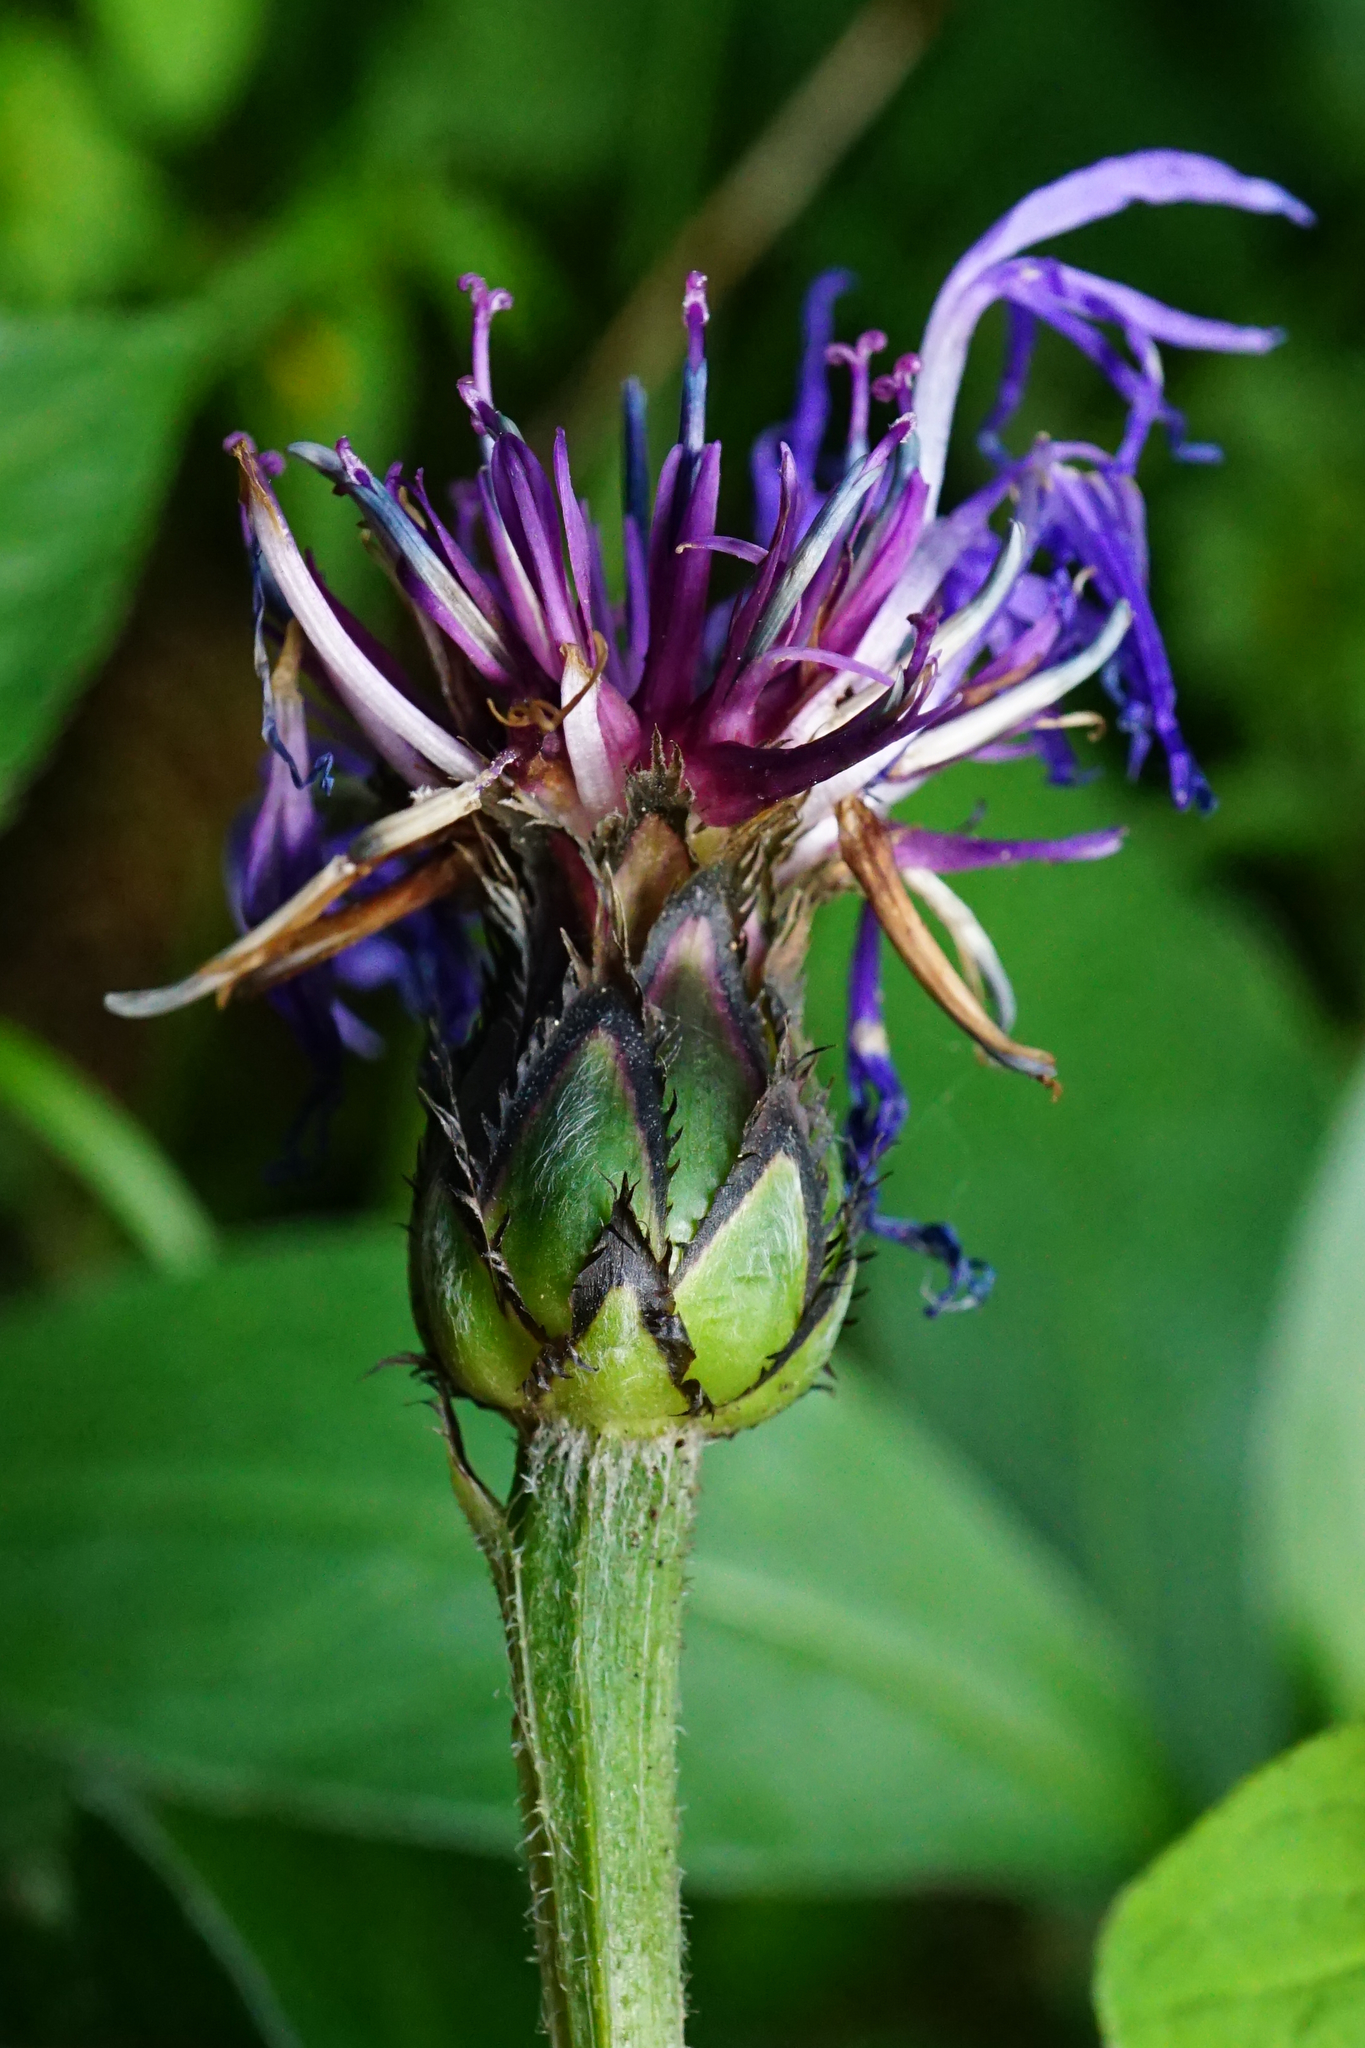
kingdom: Plantae
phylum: Tracheophyta
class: Magnoliopsida
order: Asterales
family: Asteraceae
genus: Centaurea
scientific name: Centaurea montana
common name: Perennial cornflower
